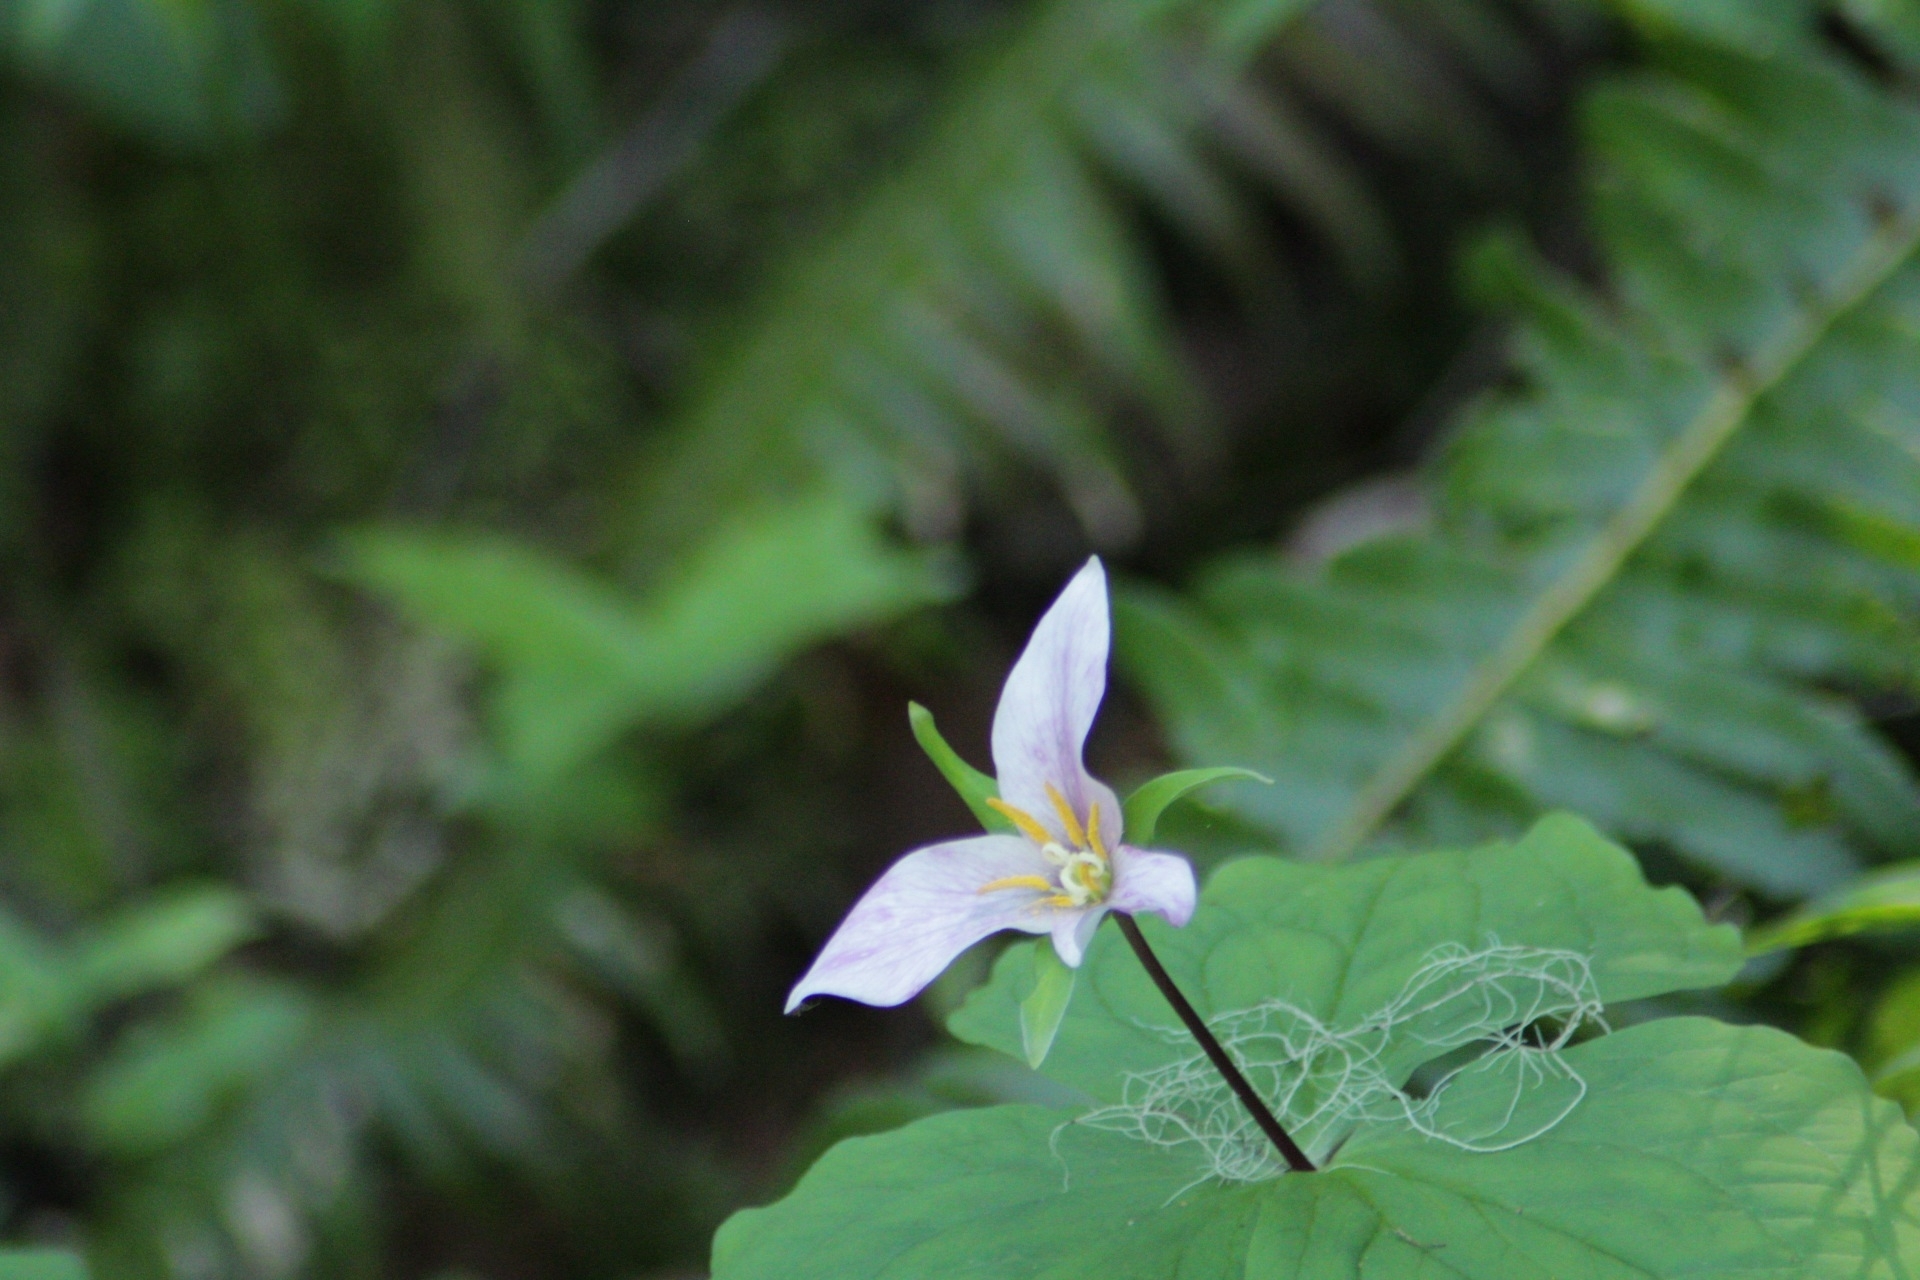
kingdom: Plantae
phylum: Tracheophyta
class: Liliopsida
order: Liliales
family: Melanthiaceae
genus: Trillium
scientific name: Trillium ovatum
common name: Pacific trillium
